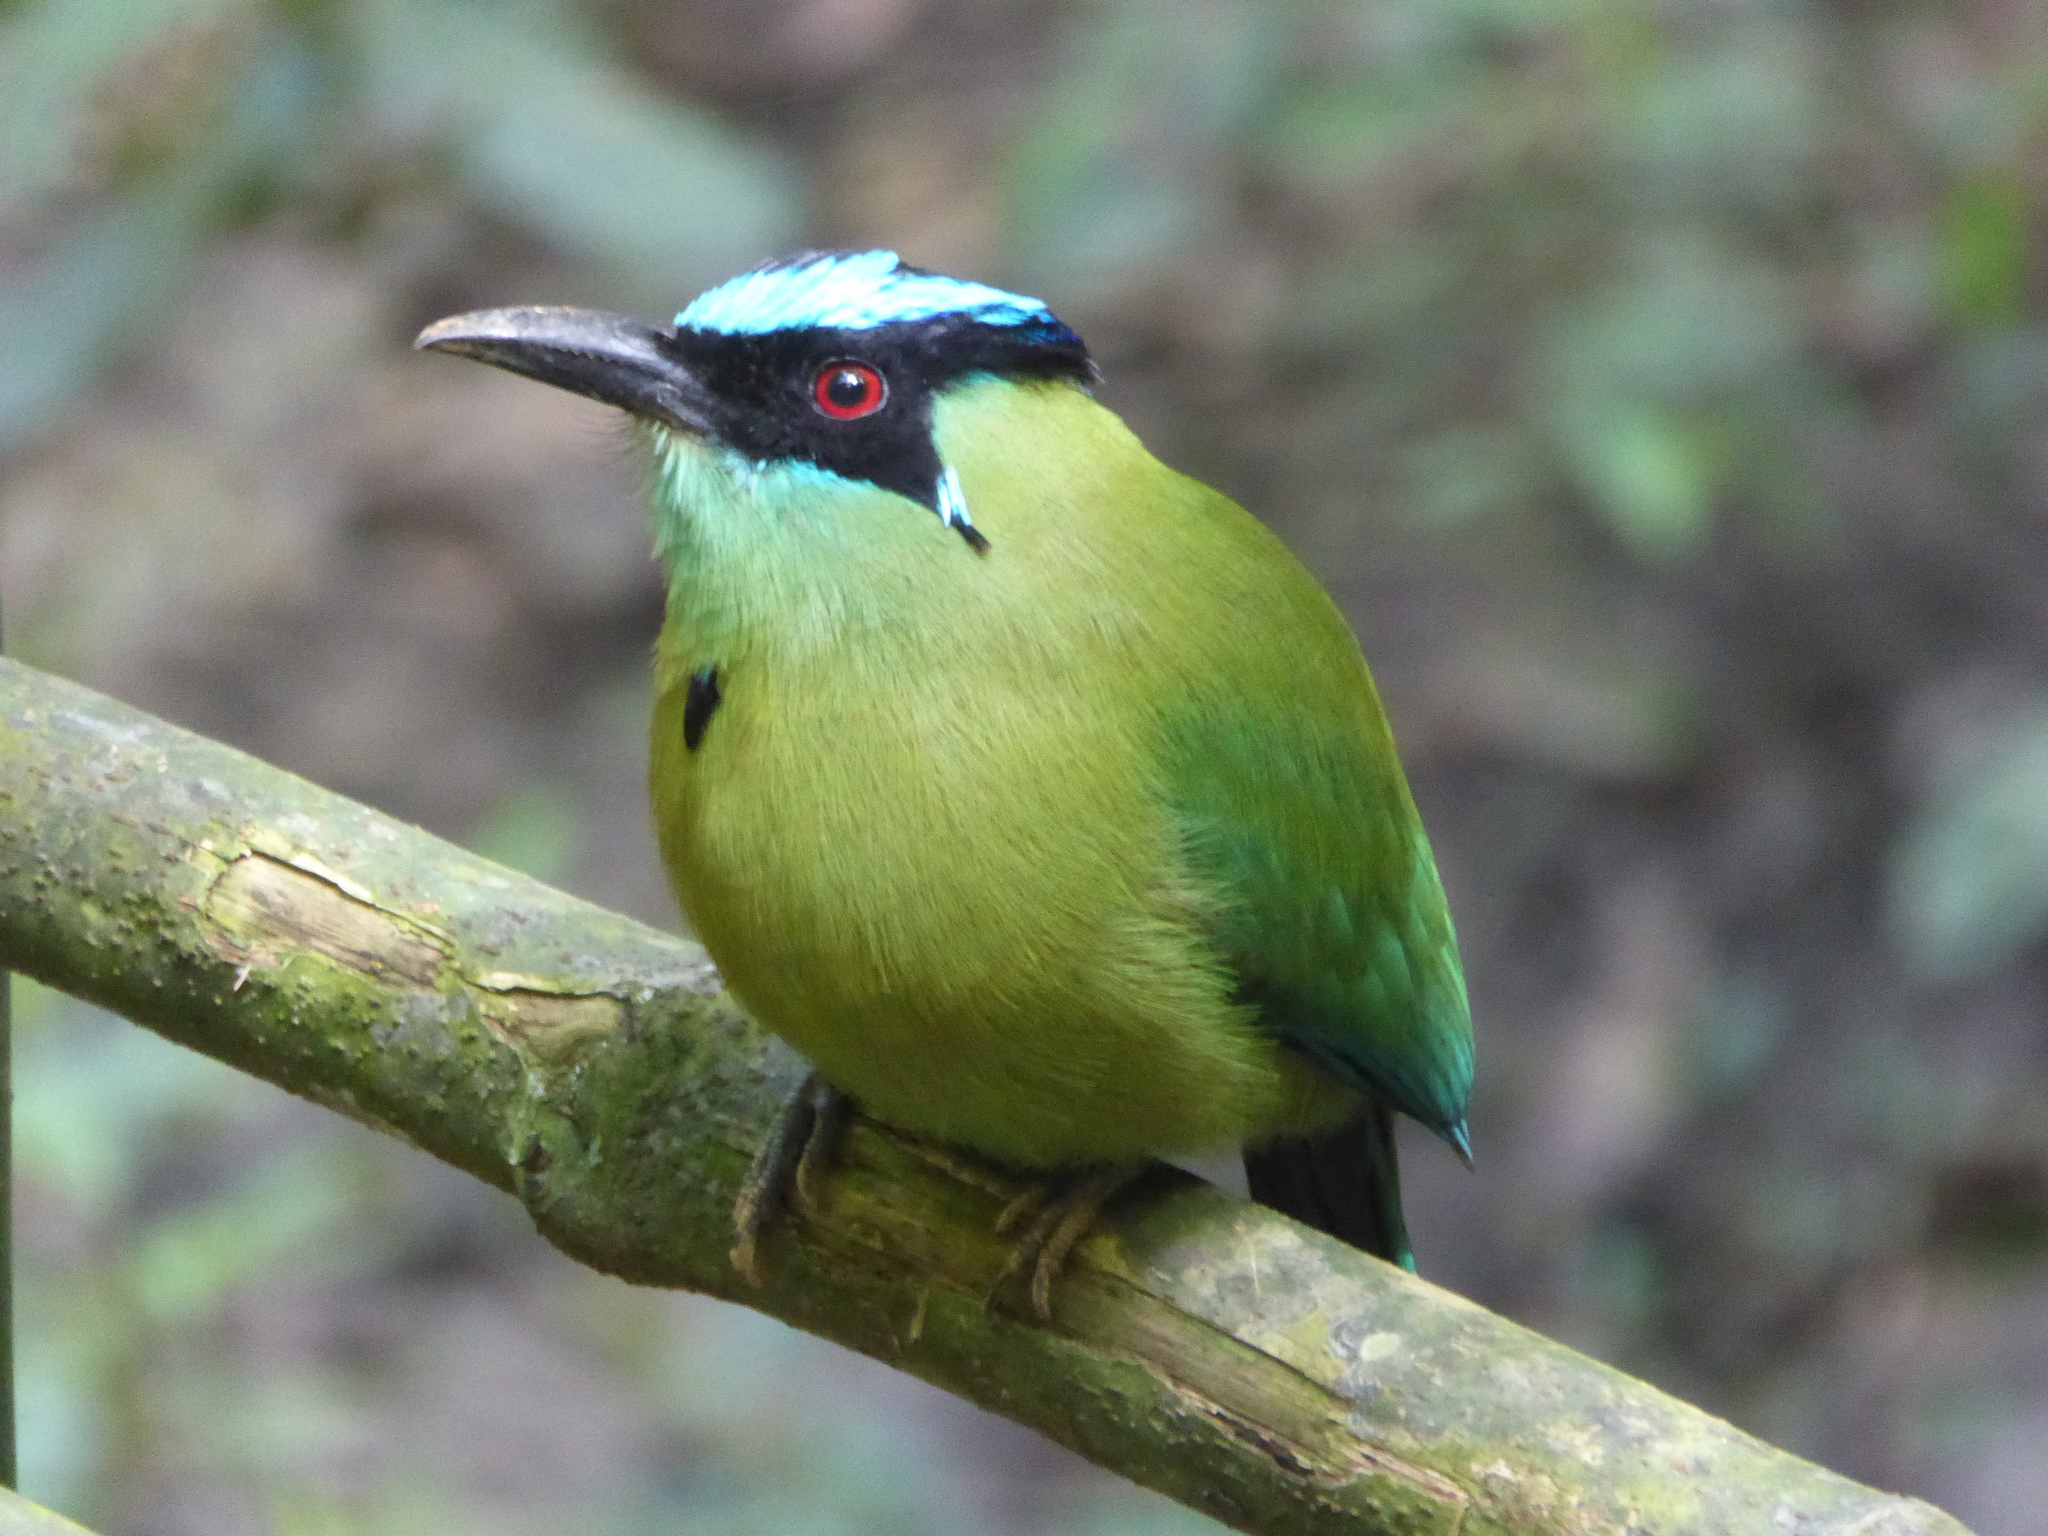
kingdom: Animalia
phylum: Chordata
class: Aves
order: Coraciiformes
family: Momotidae
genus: Momotus
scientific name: Momotus aequatorialis
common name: Andean motmot
